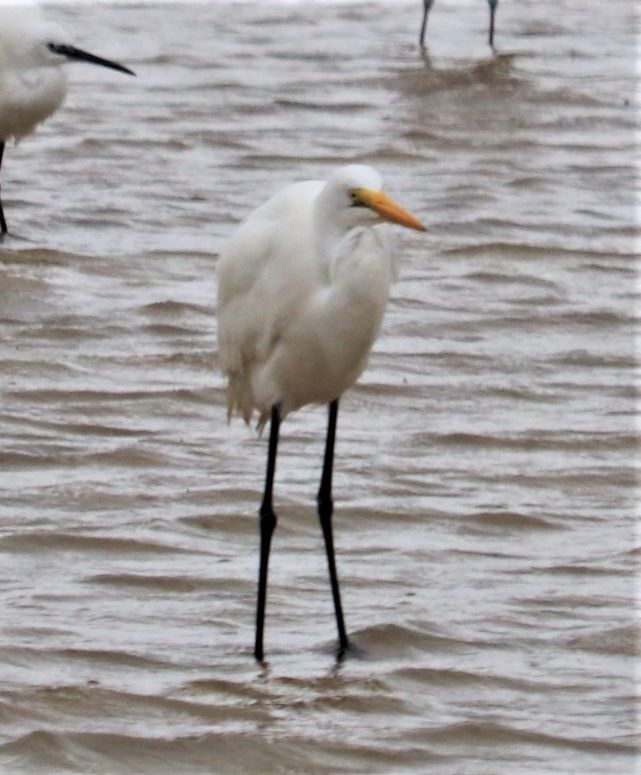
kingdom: Animalia
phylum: Chordata
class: Aves
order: Pelecaniformes
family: Ardeidae
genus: Ardea
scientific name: Ardea alba
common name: Great egret
